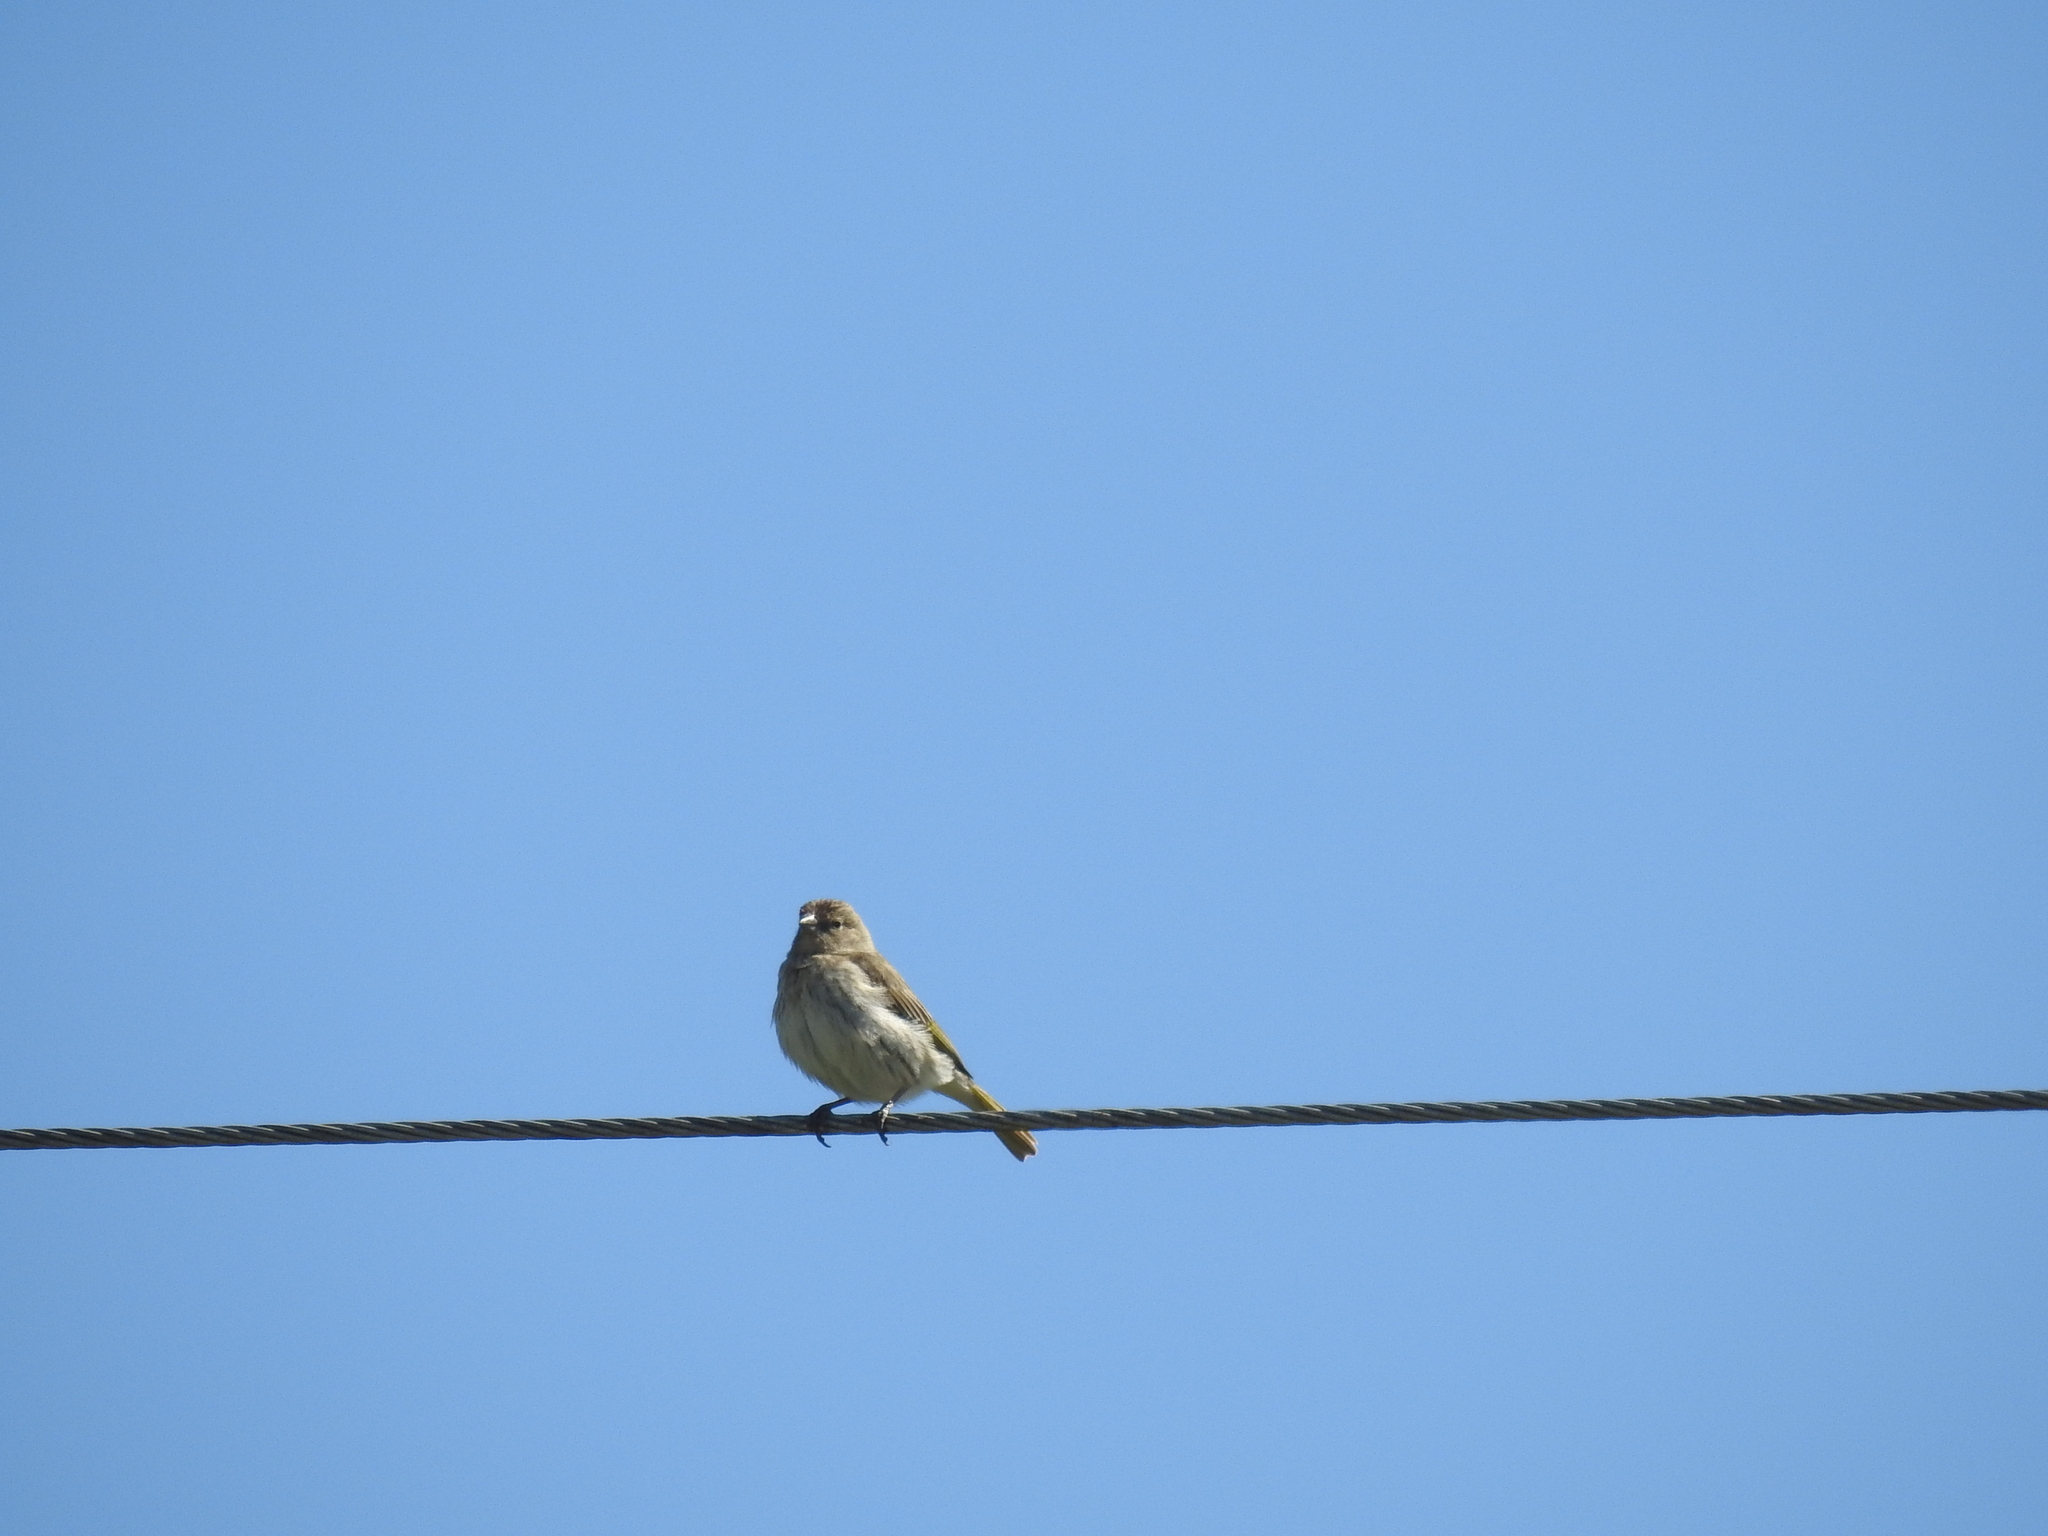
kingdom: Animalia
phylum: Chordata
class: Aves
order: Passeriformes
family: Thraupidae
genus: Sicalis
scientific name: Sicalis flaveola
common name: Saffron finch
